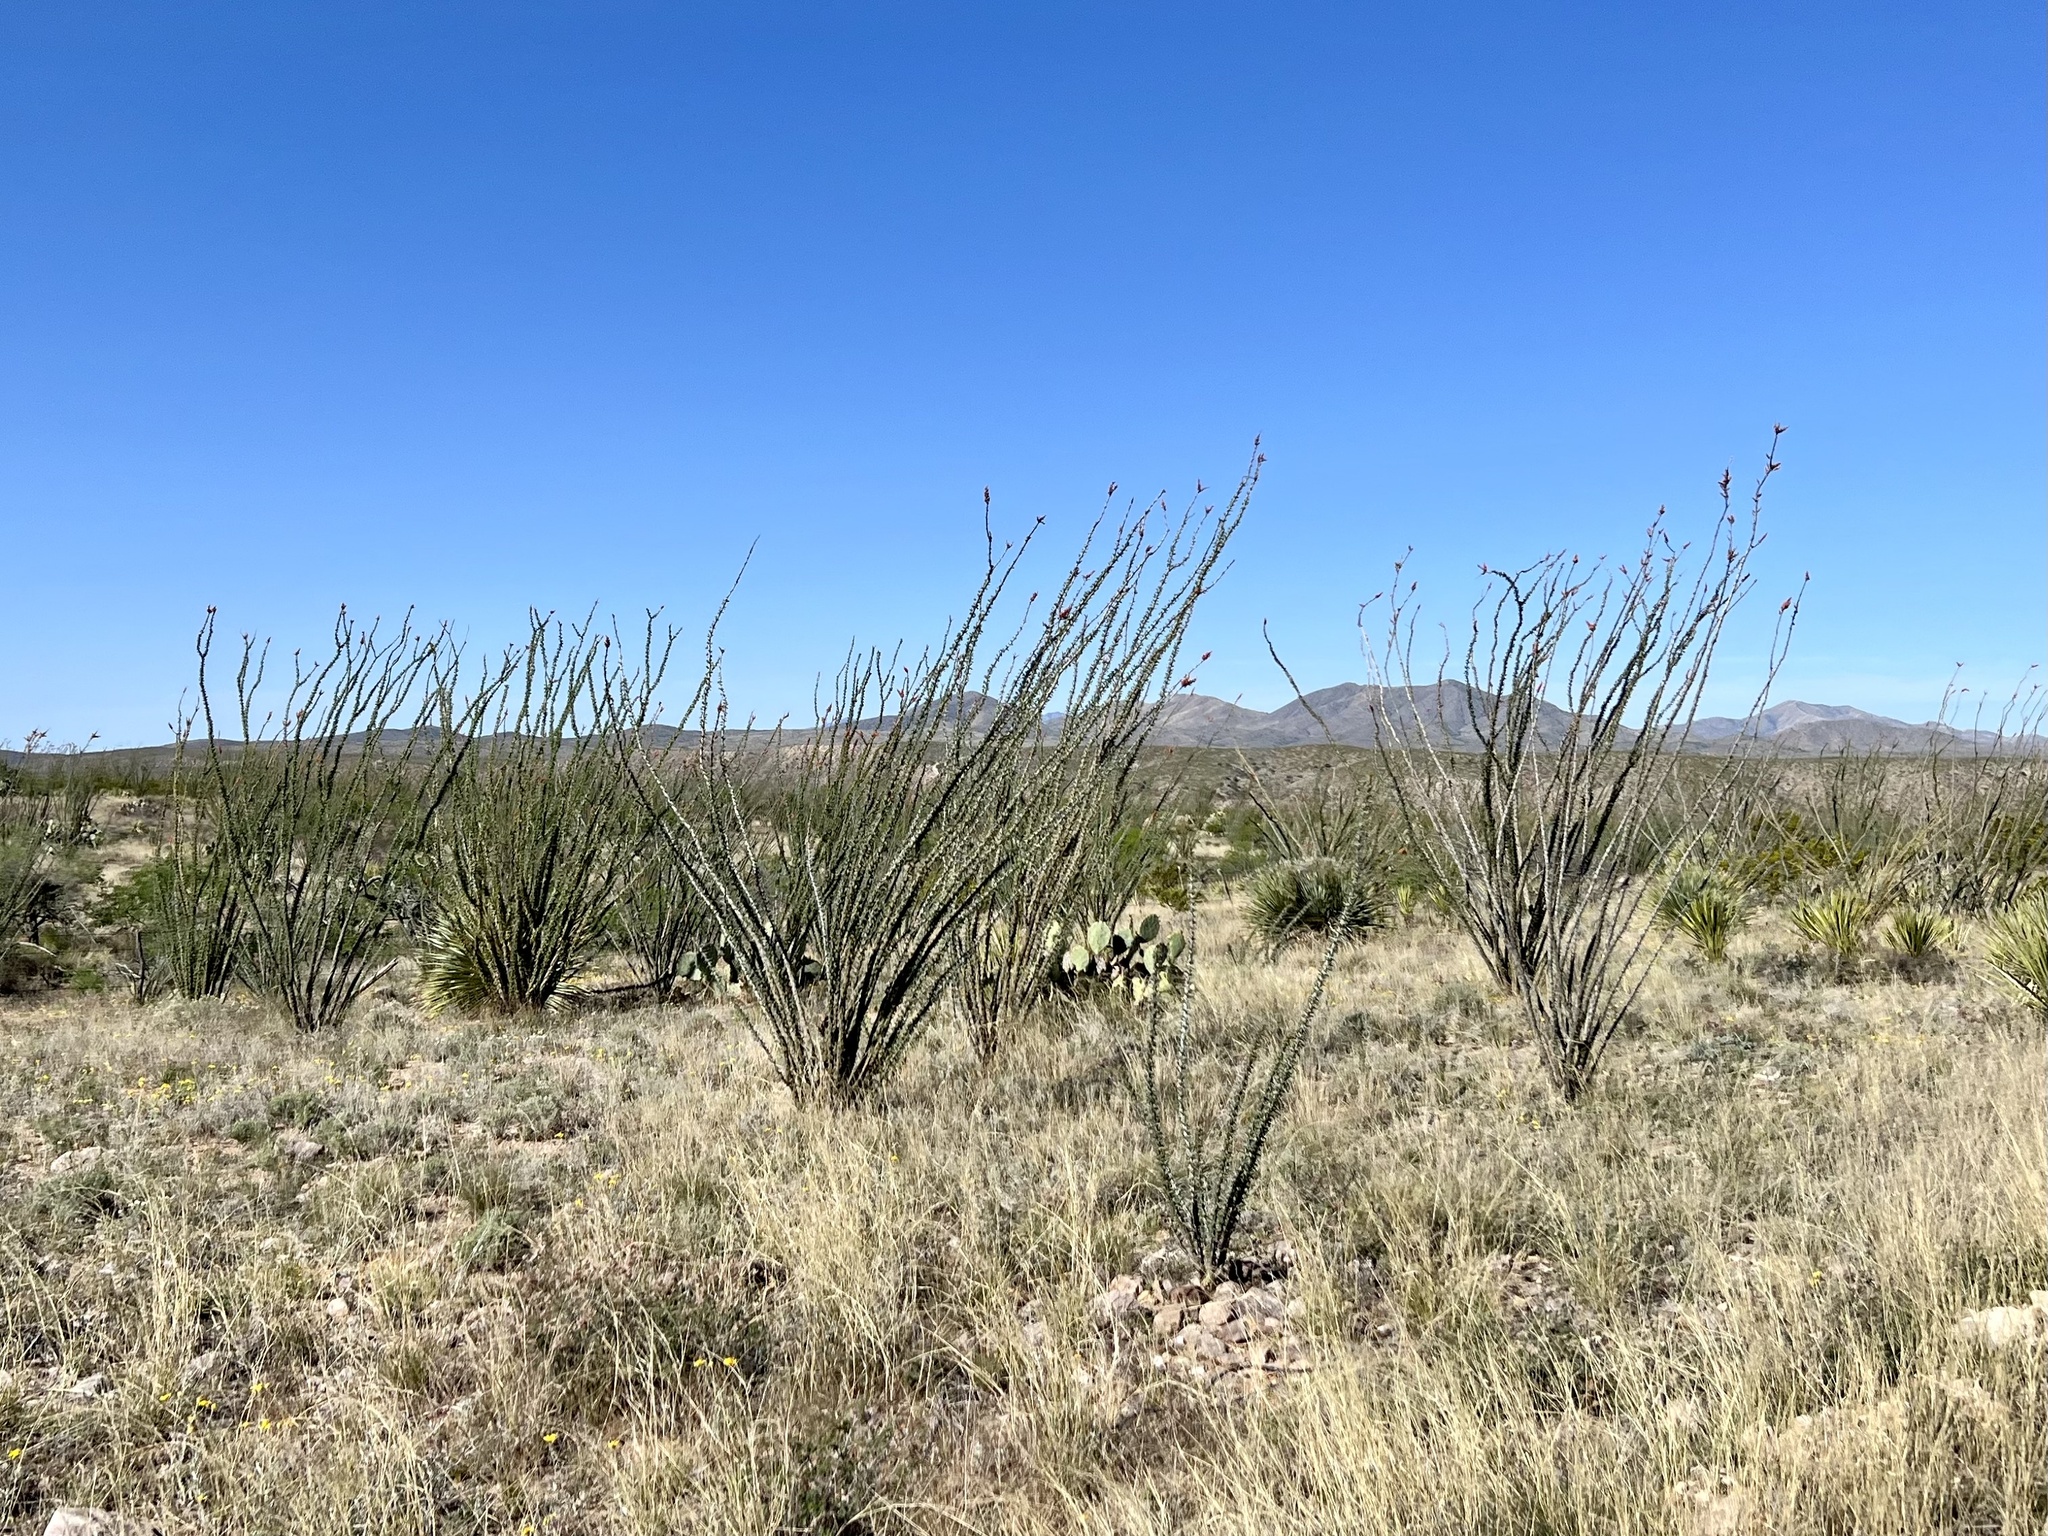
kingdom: Plantae
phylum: Tracheophyta
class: Magnoliopsida
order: Ericales
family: Fouquieriaceae
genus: Fouquieria
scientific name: Fouquieria splendens
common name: Vine-cactus
